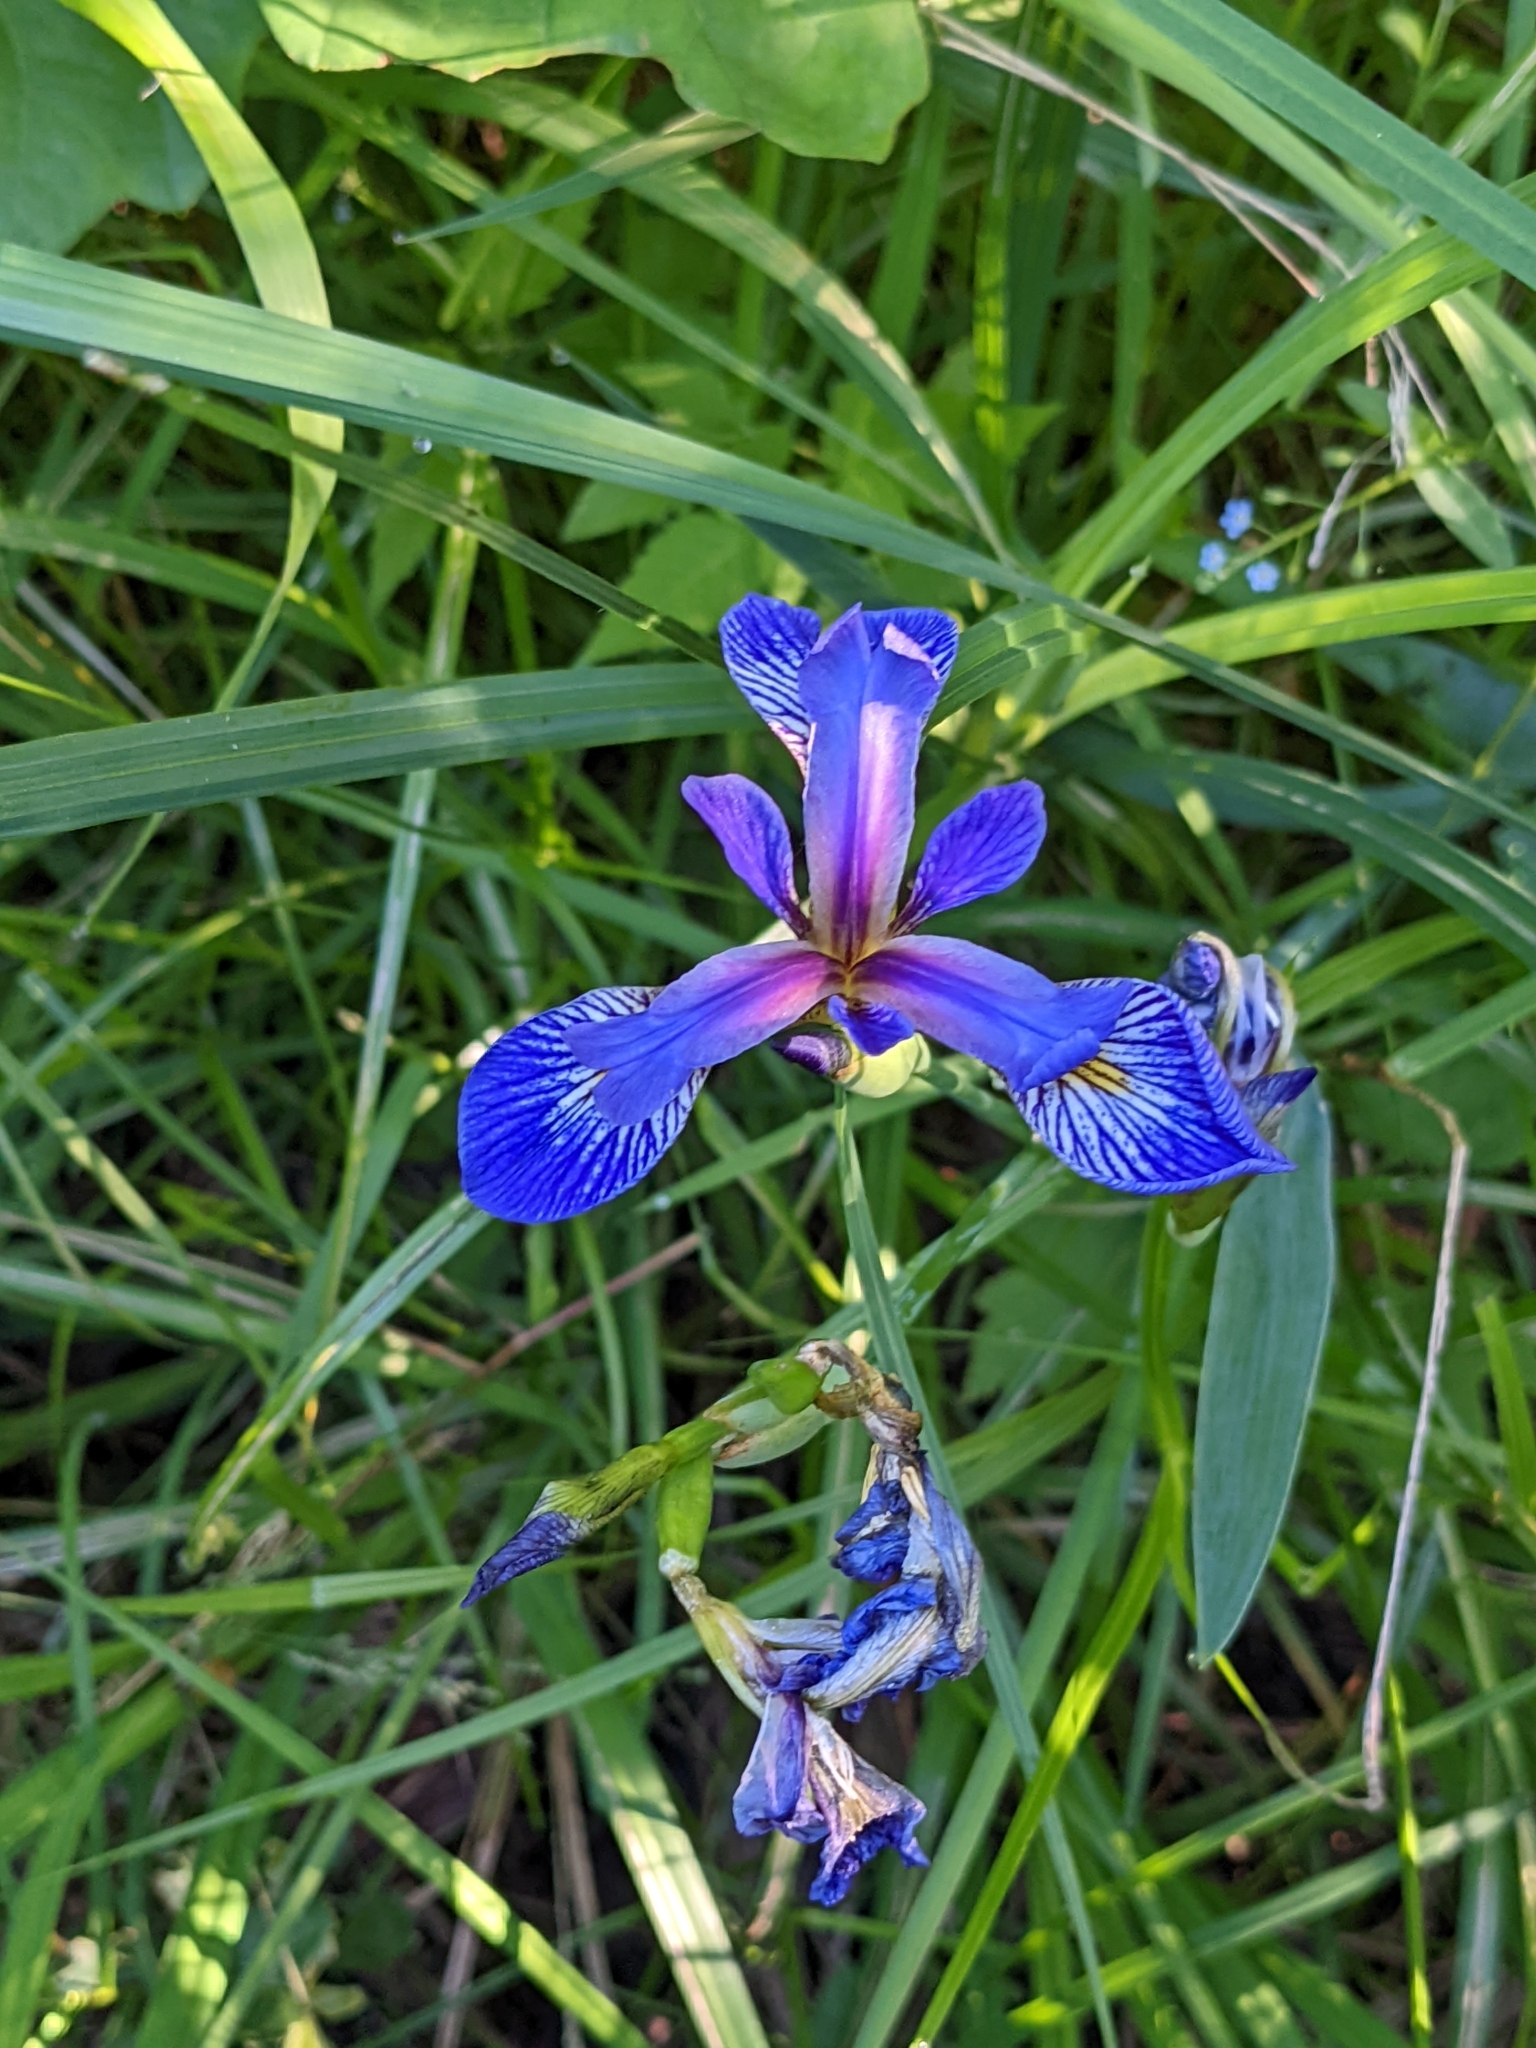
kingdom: Plantae
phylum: Tracheophyta
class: Liliopsida
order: Asparagales
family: Iridaceae
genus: Iris
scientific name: Iris versicolor
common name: Purple iris
